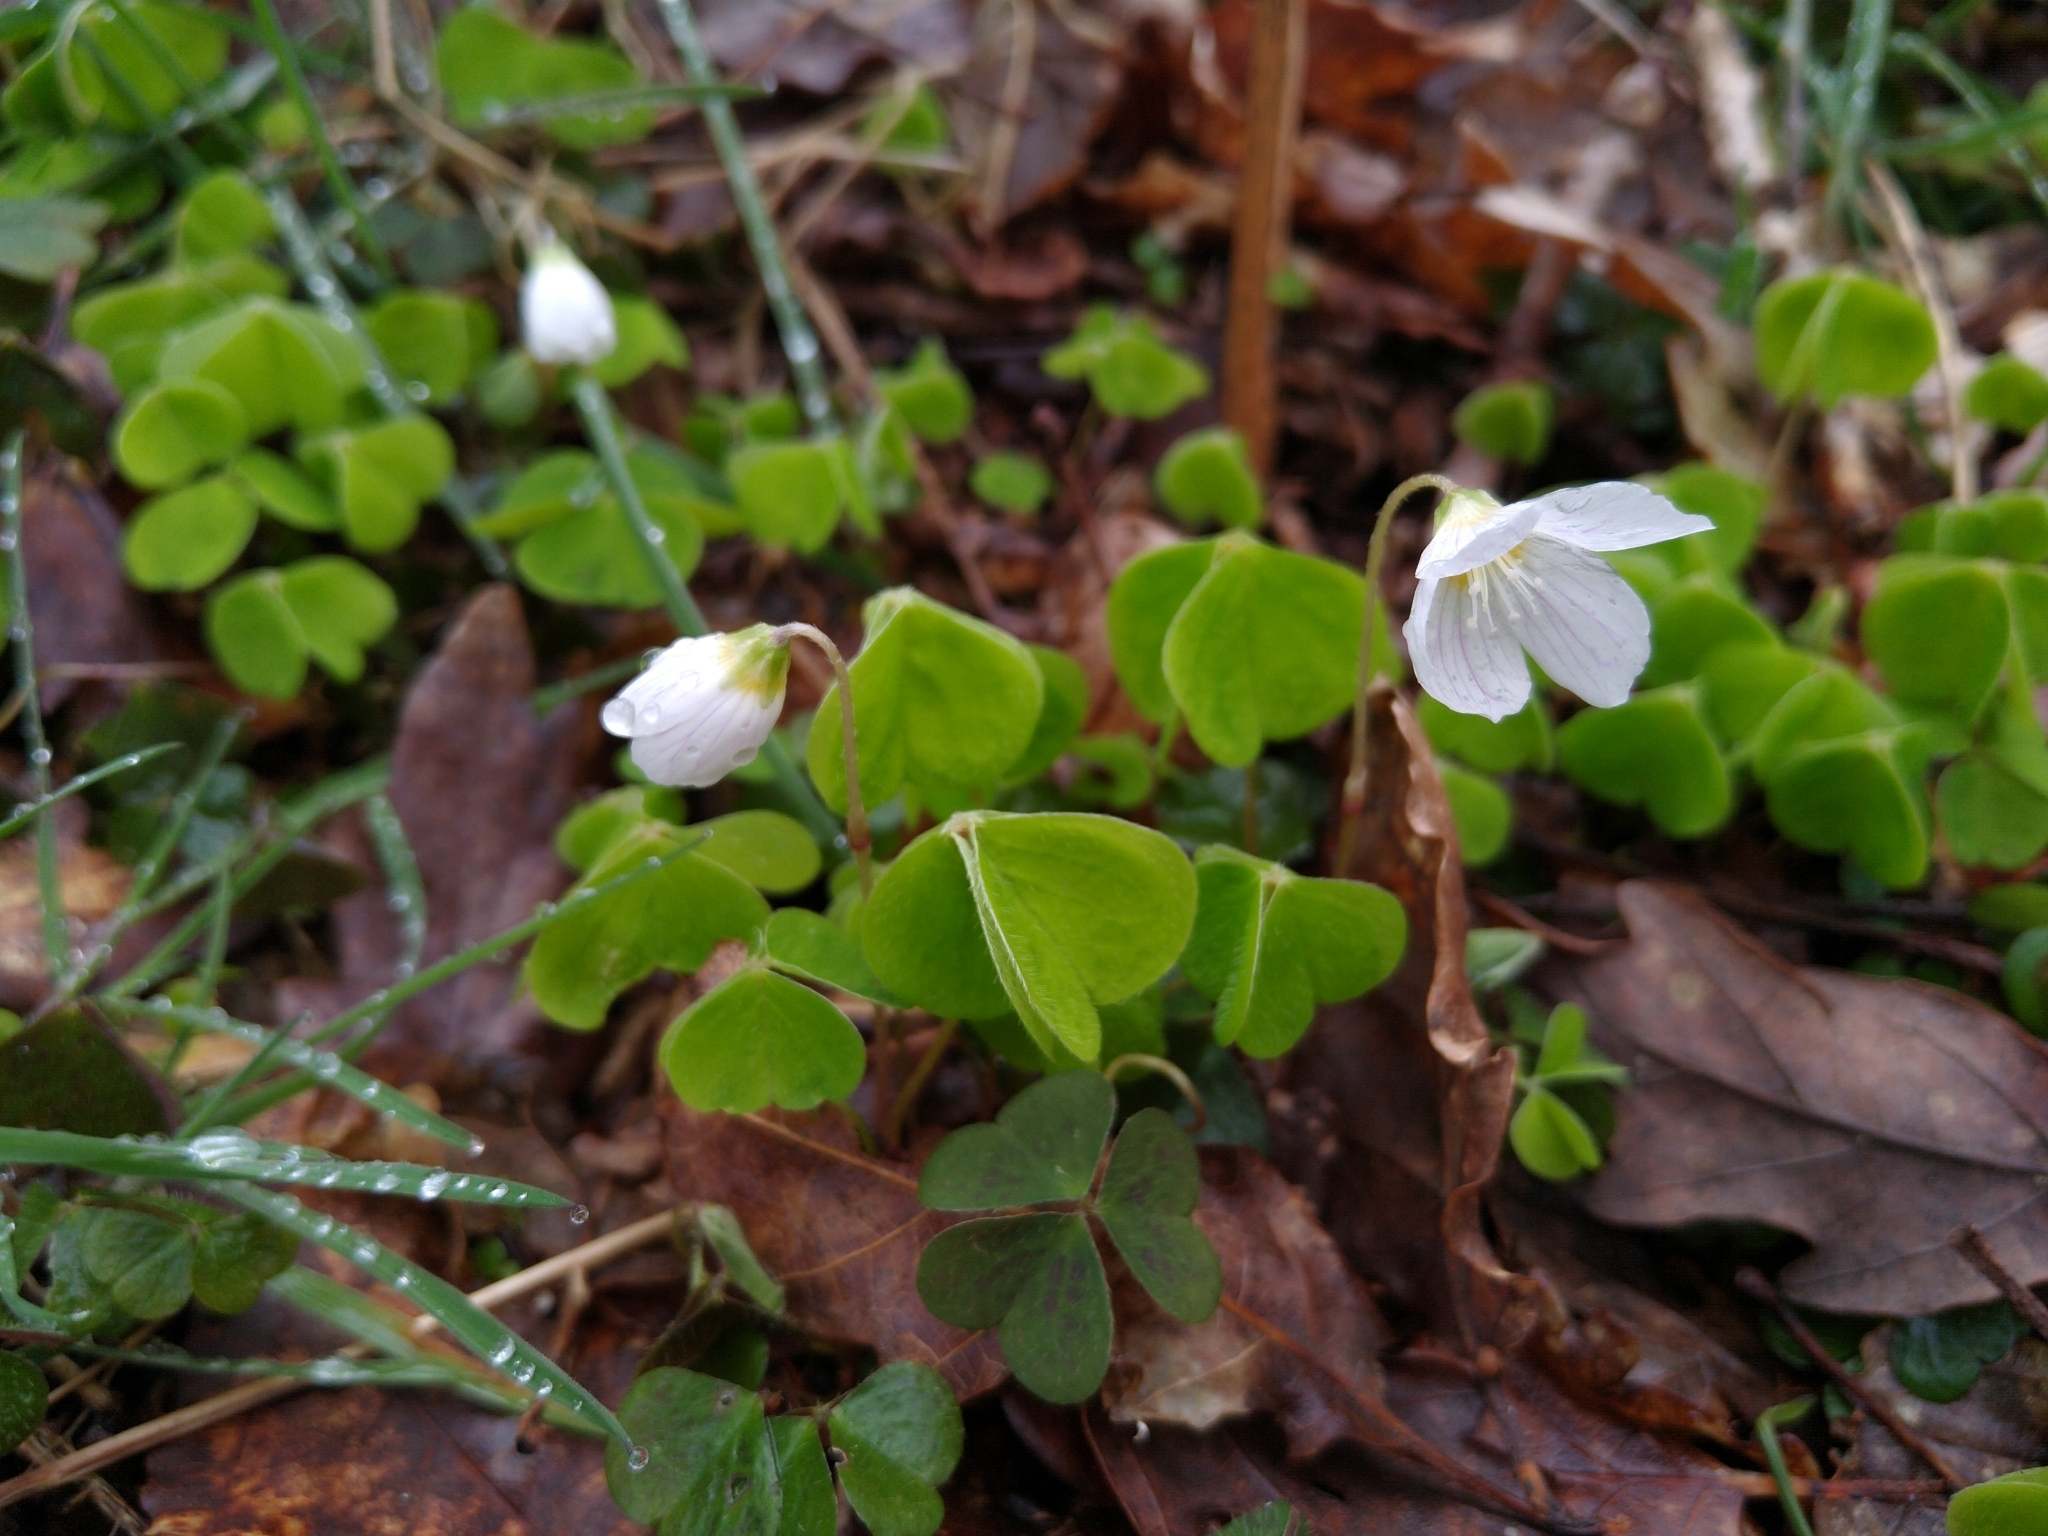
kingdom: Plantae
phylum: Tracheophyta
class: Magnoliopsida
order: Oxalidales
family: Oxalidaceae
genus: Oxalis
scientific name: Oxalis acetosella
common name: Wood-sorrel
